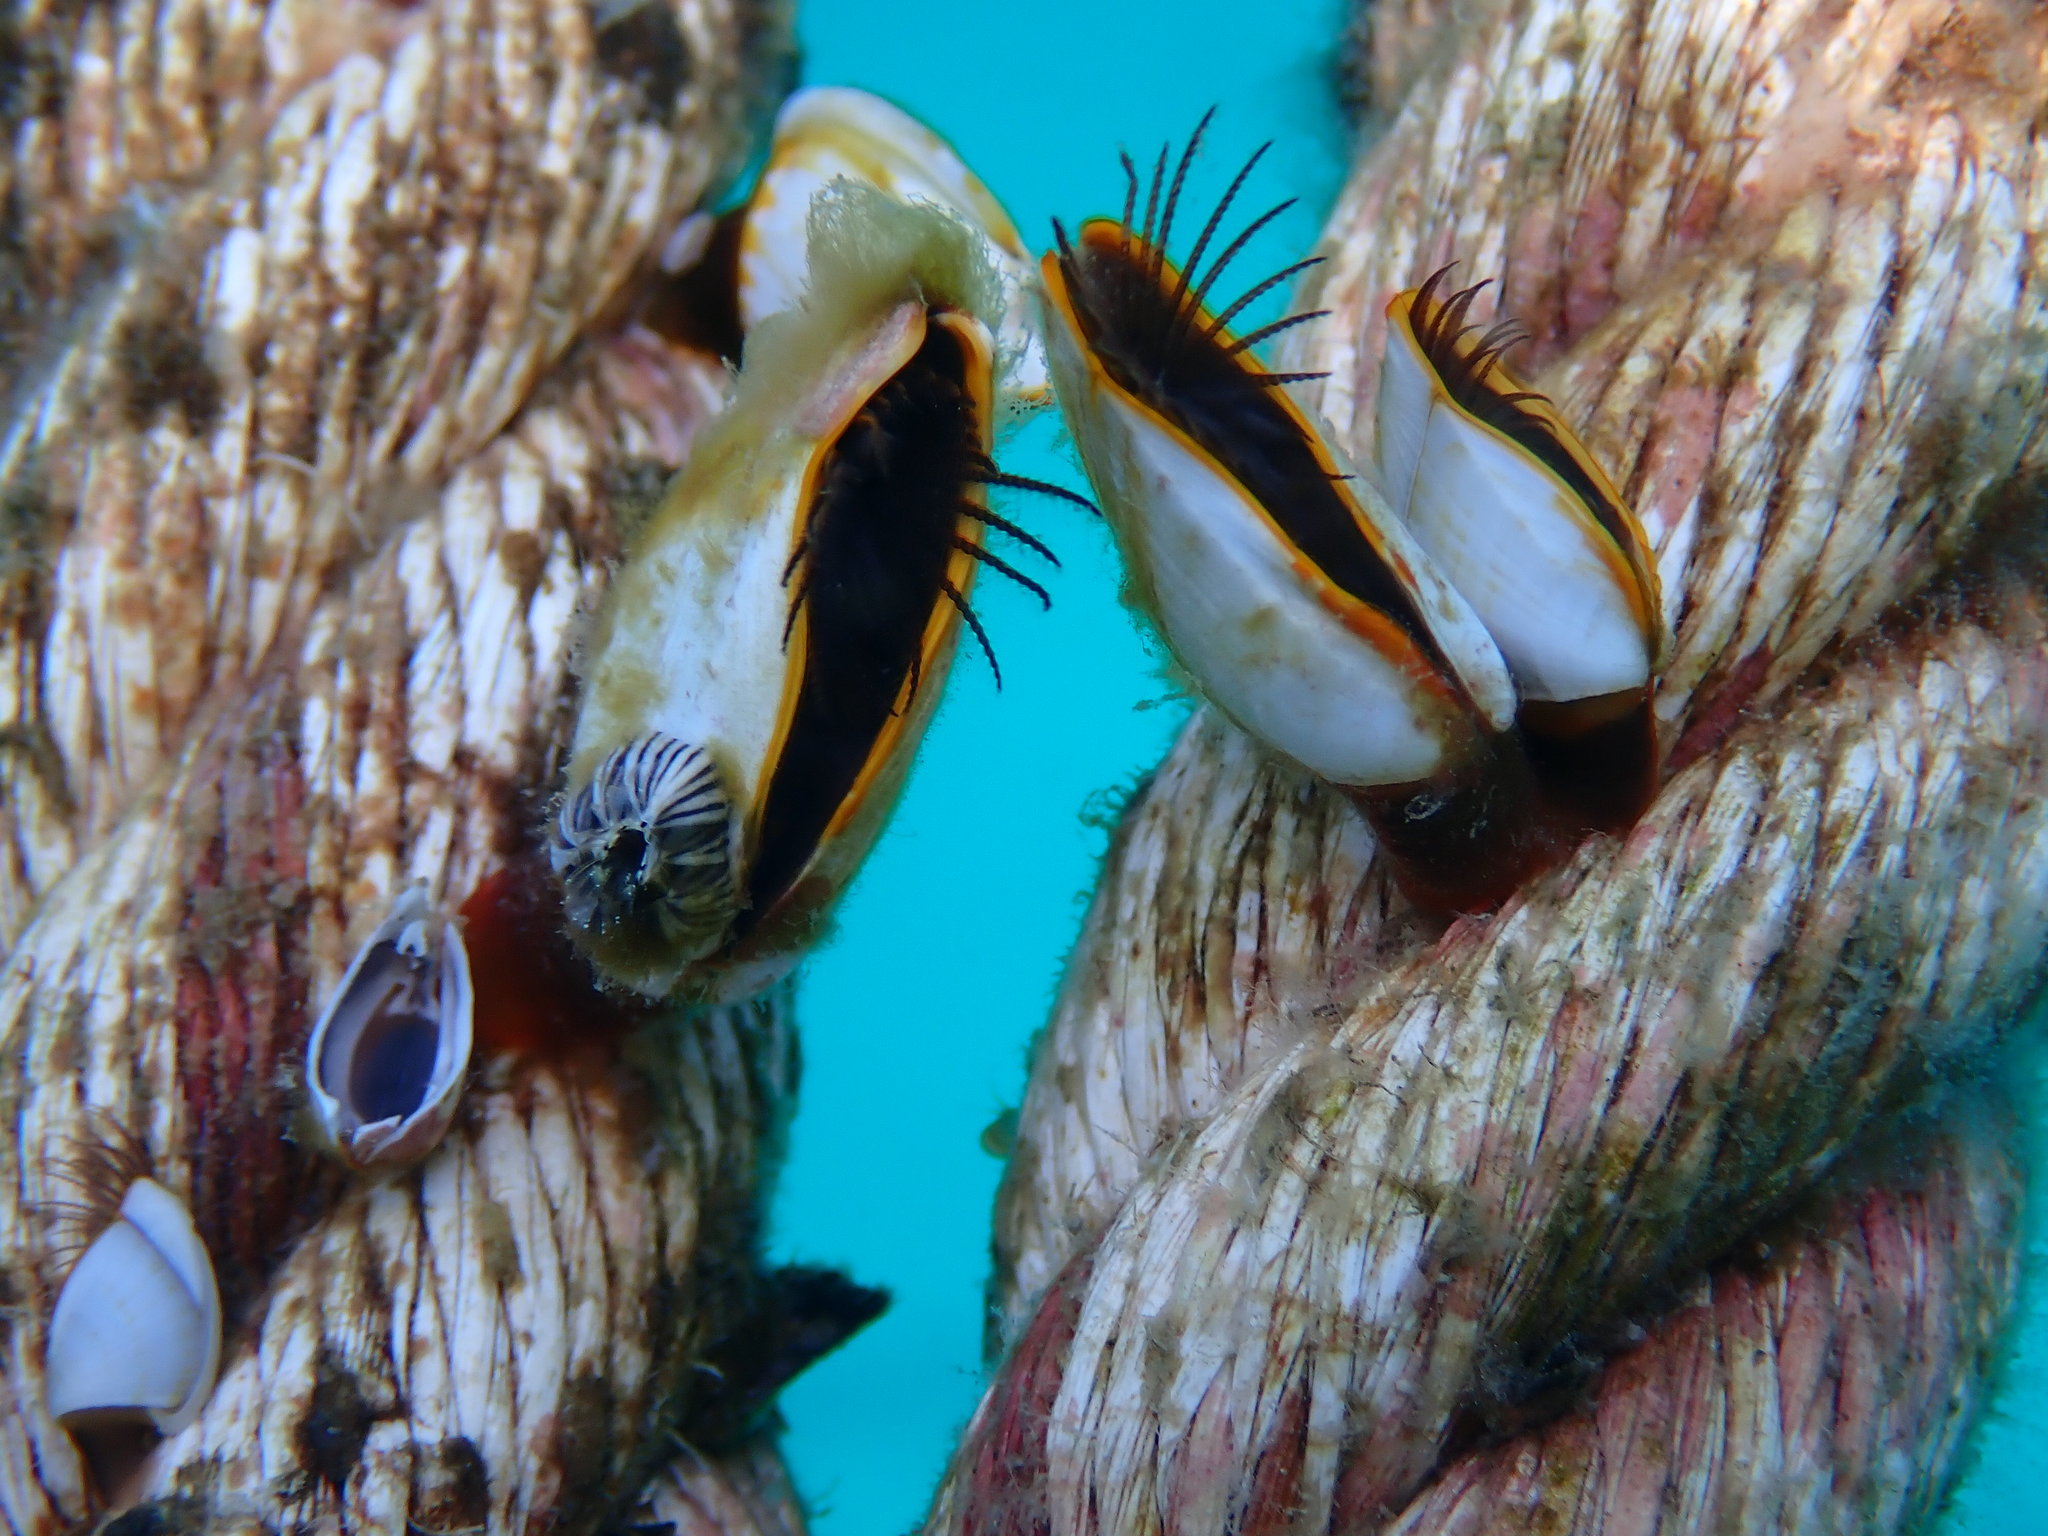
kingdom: Animalia
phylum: Arthropoda
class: Maxillopoda
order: Pedunculata
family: Lepadidae
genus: Lepas
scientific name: Lepas anserifera
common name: Goose barnacle
